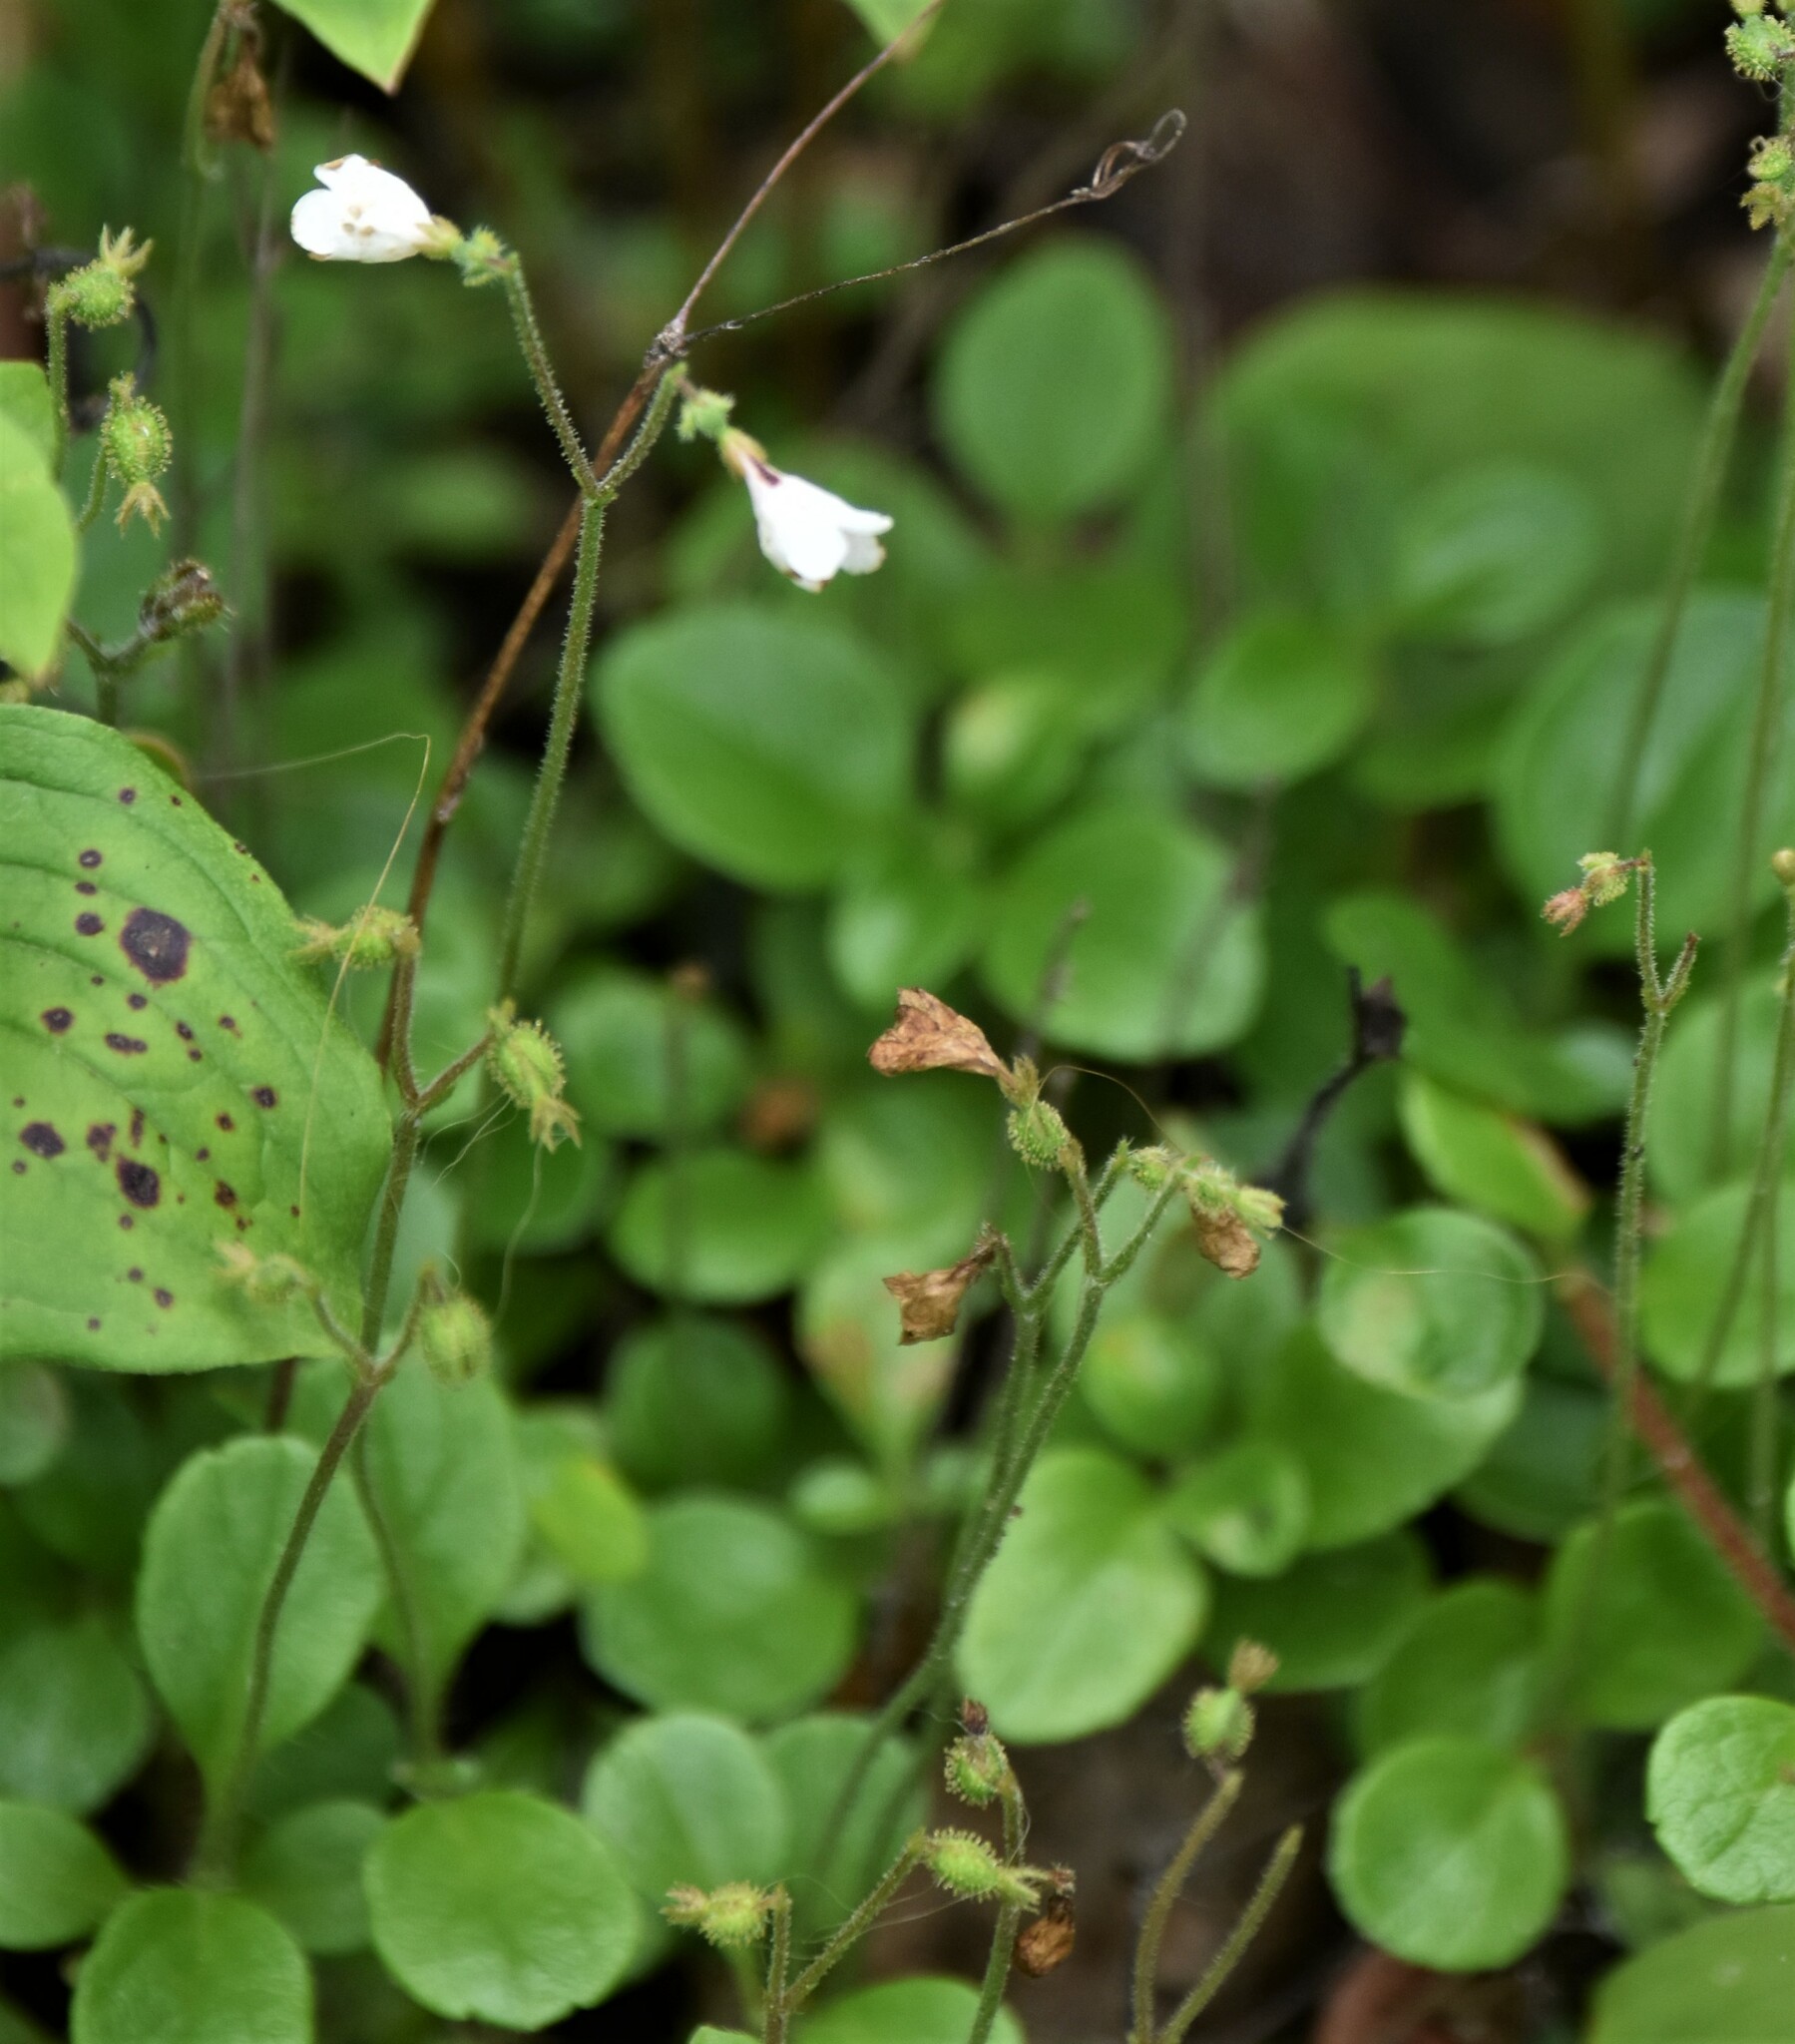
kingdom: Plantae
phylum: Tracheophyta
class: Magnoliopsida
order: Dipsacales
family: Caprifoliaceae
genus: Linnaea
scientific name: Linnaea borealis
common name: Twinflower
